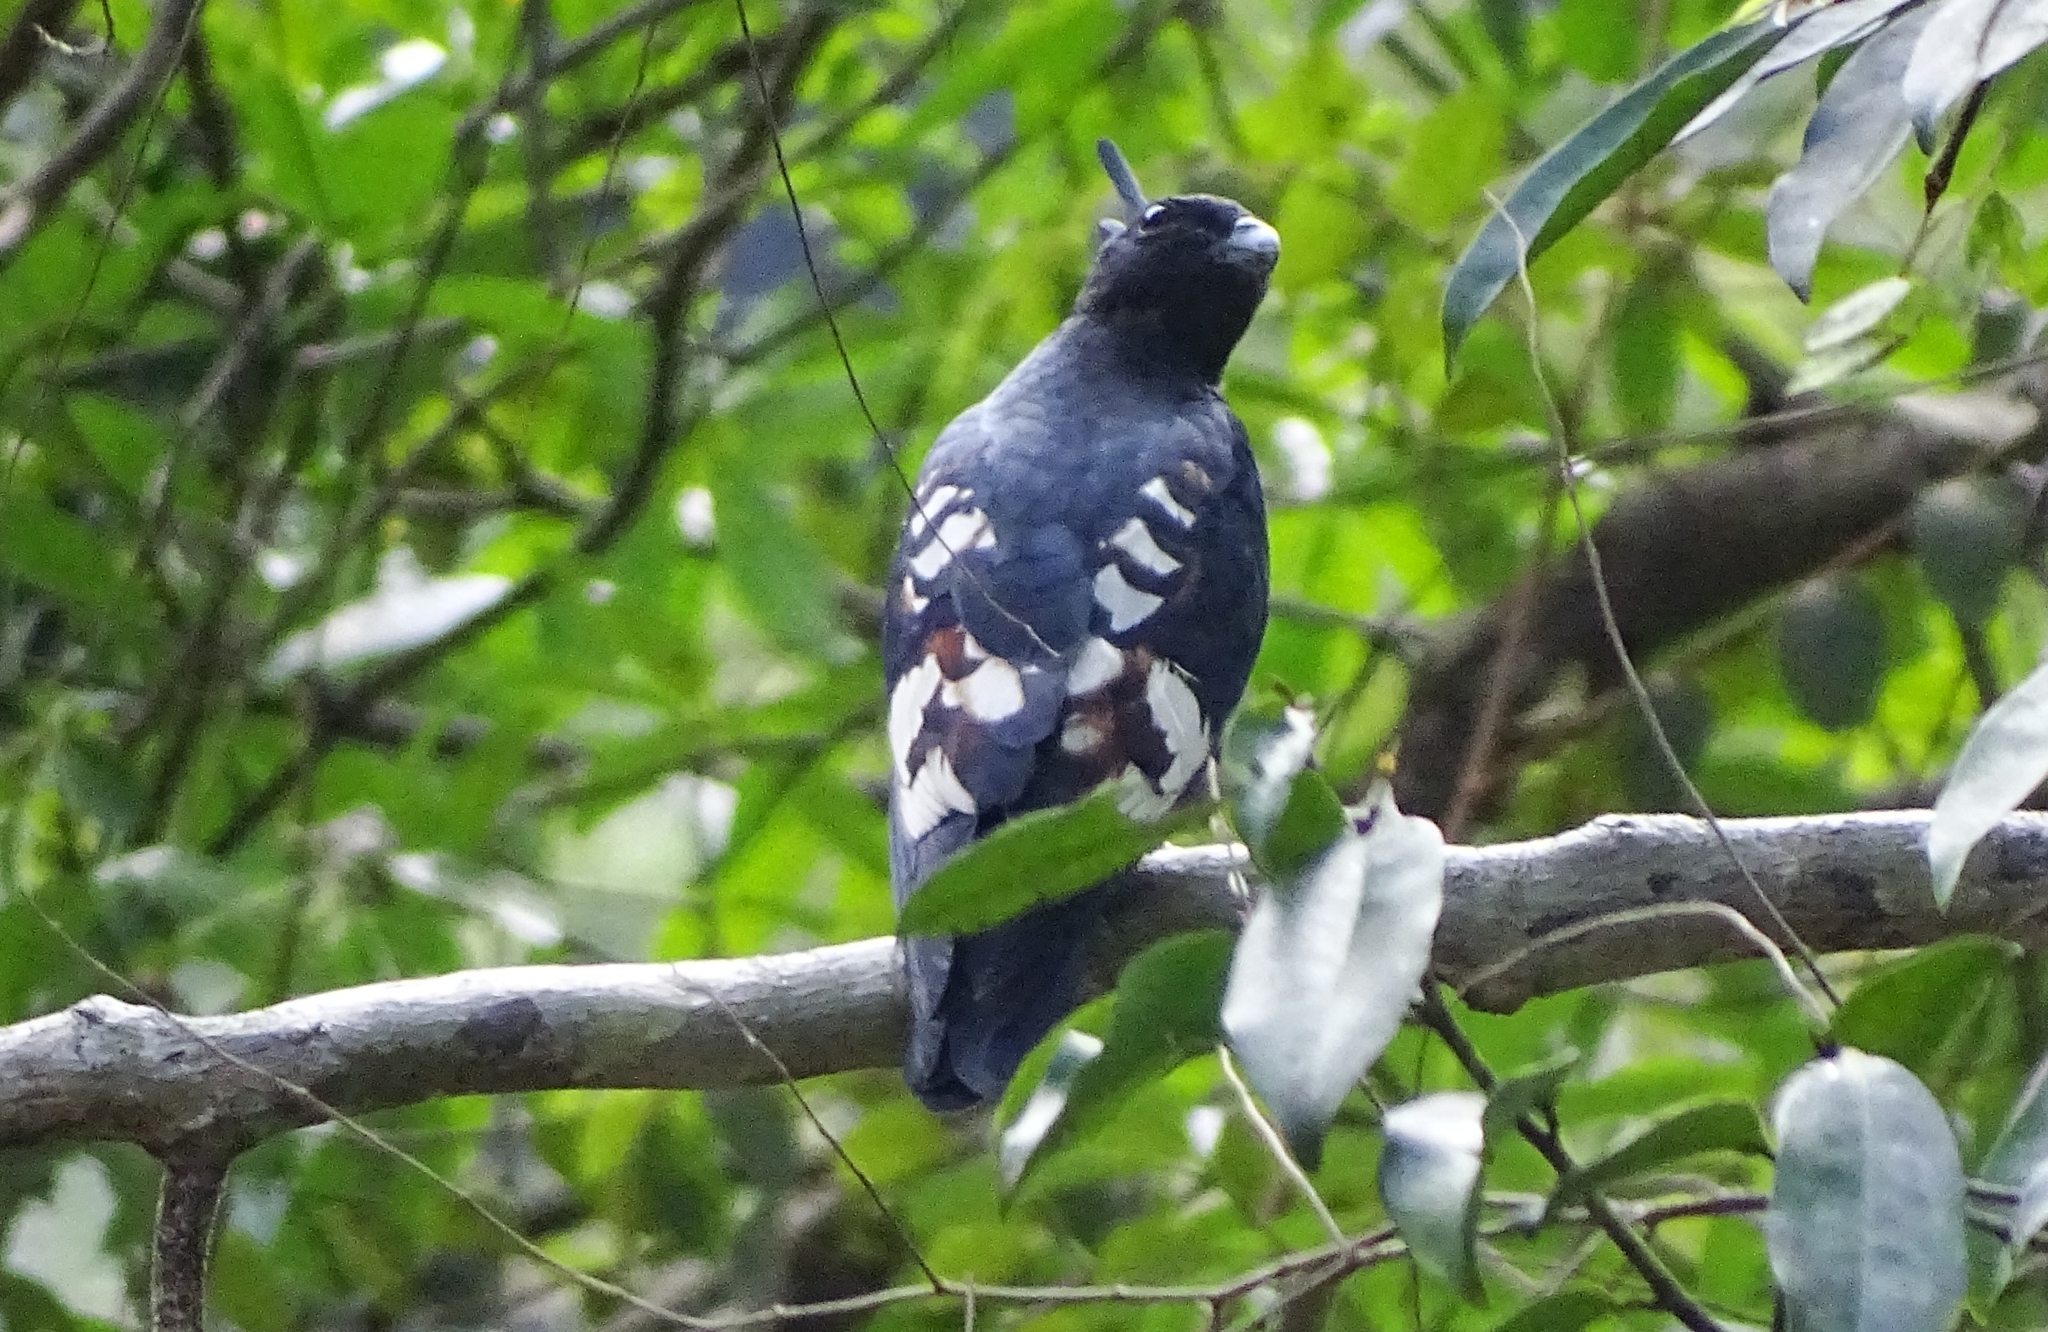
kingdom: Animalia
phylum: Chordata
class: Aves
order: Accipitriformes
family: Accipitridae
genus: Aviceda
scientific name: Aviceda leuphotes
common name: Black baza
